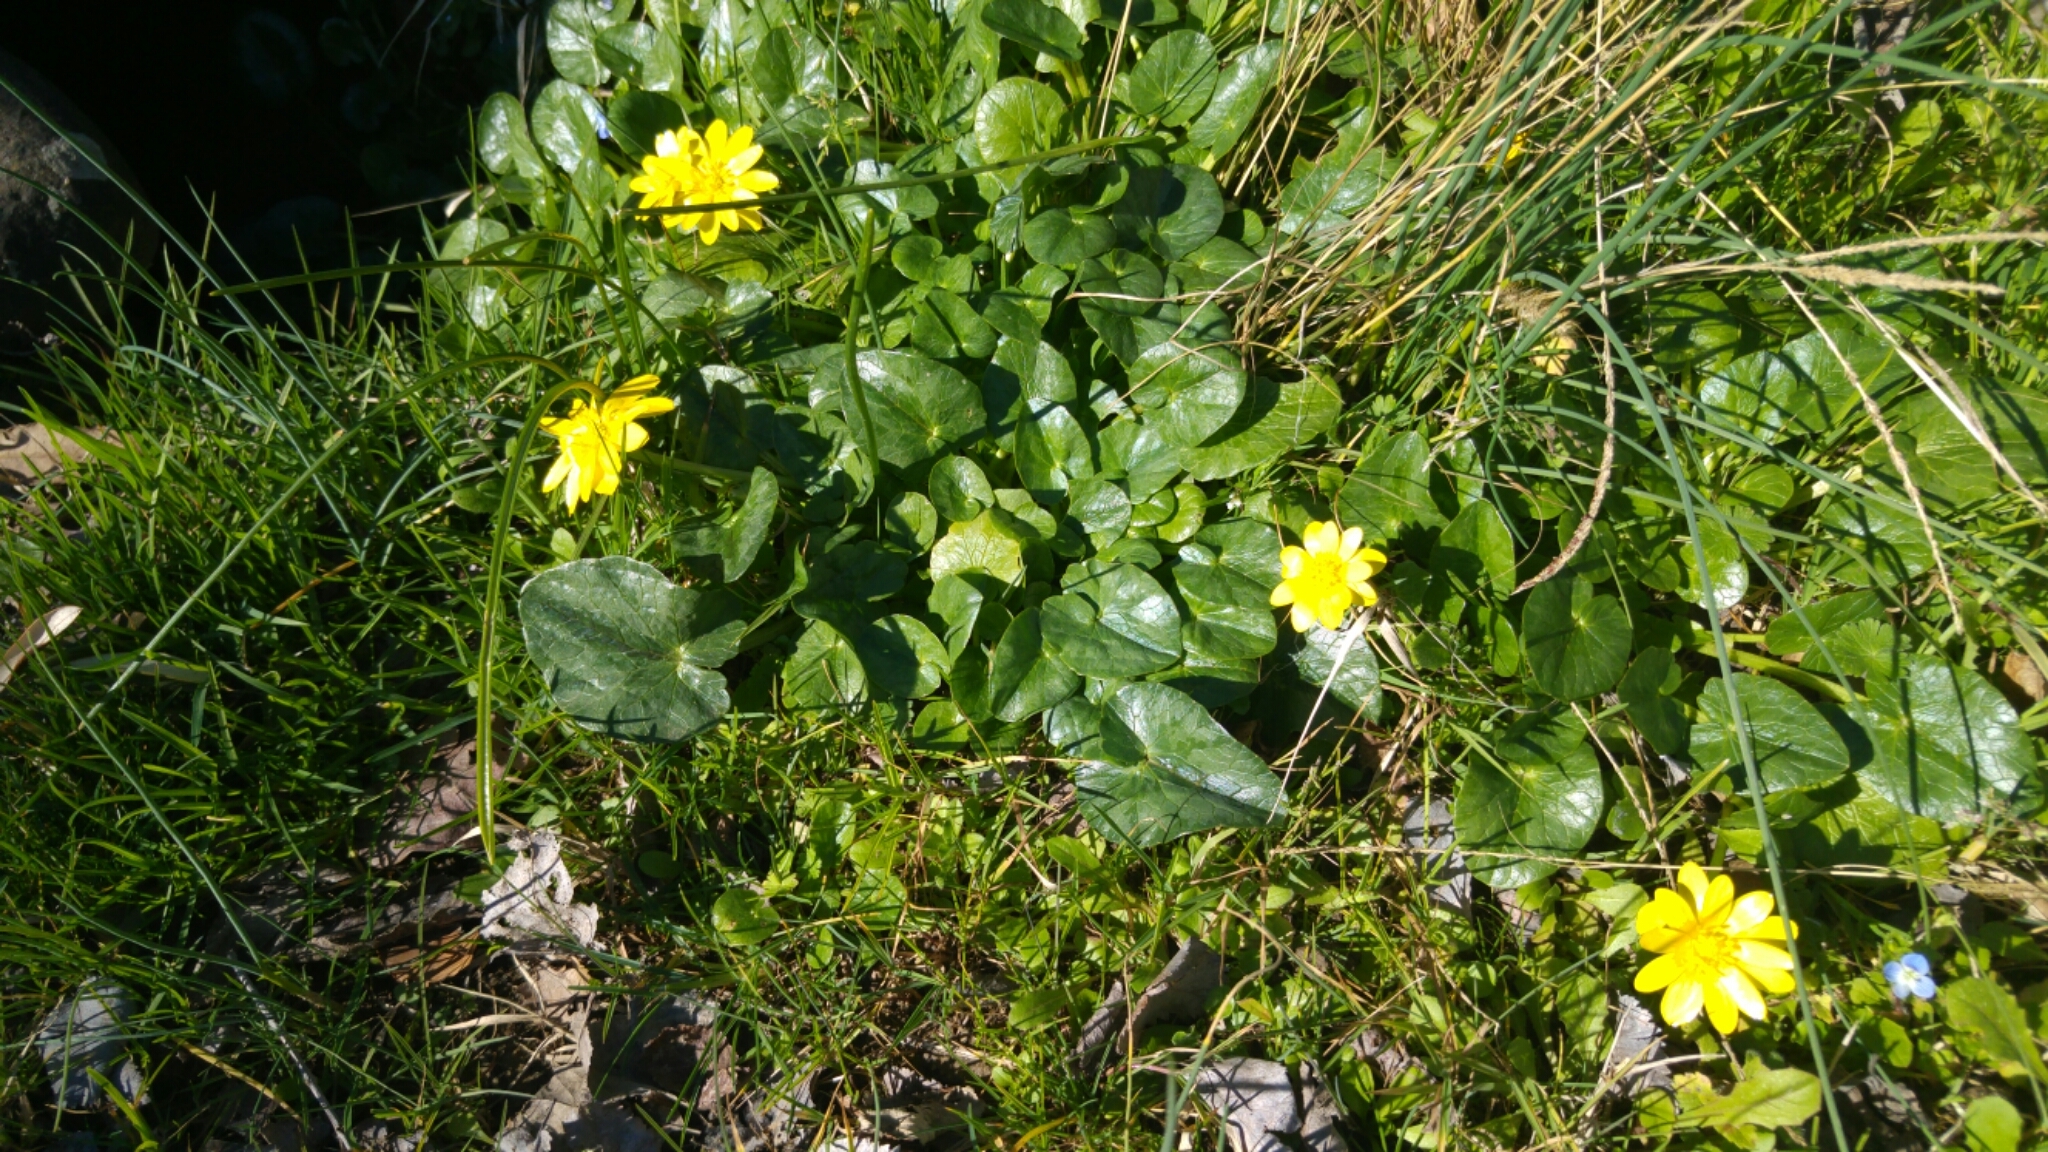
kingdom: Plantae
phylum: Tracheophyta
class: Magnoliopsida
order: Ranunculales
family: Ranunculaceae
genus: Ficaria
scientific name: Ficaria verna
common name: Lesser celandine
